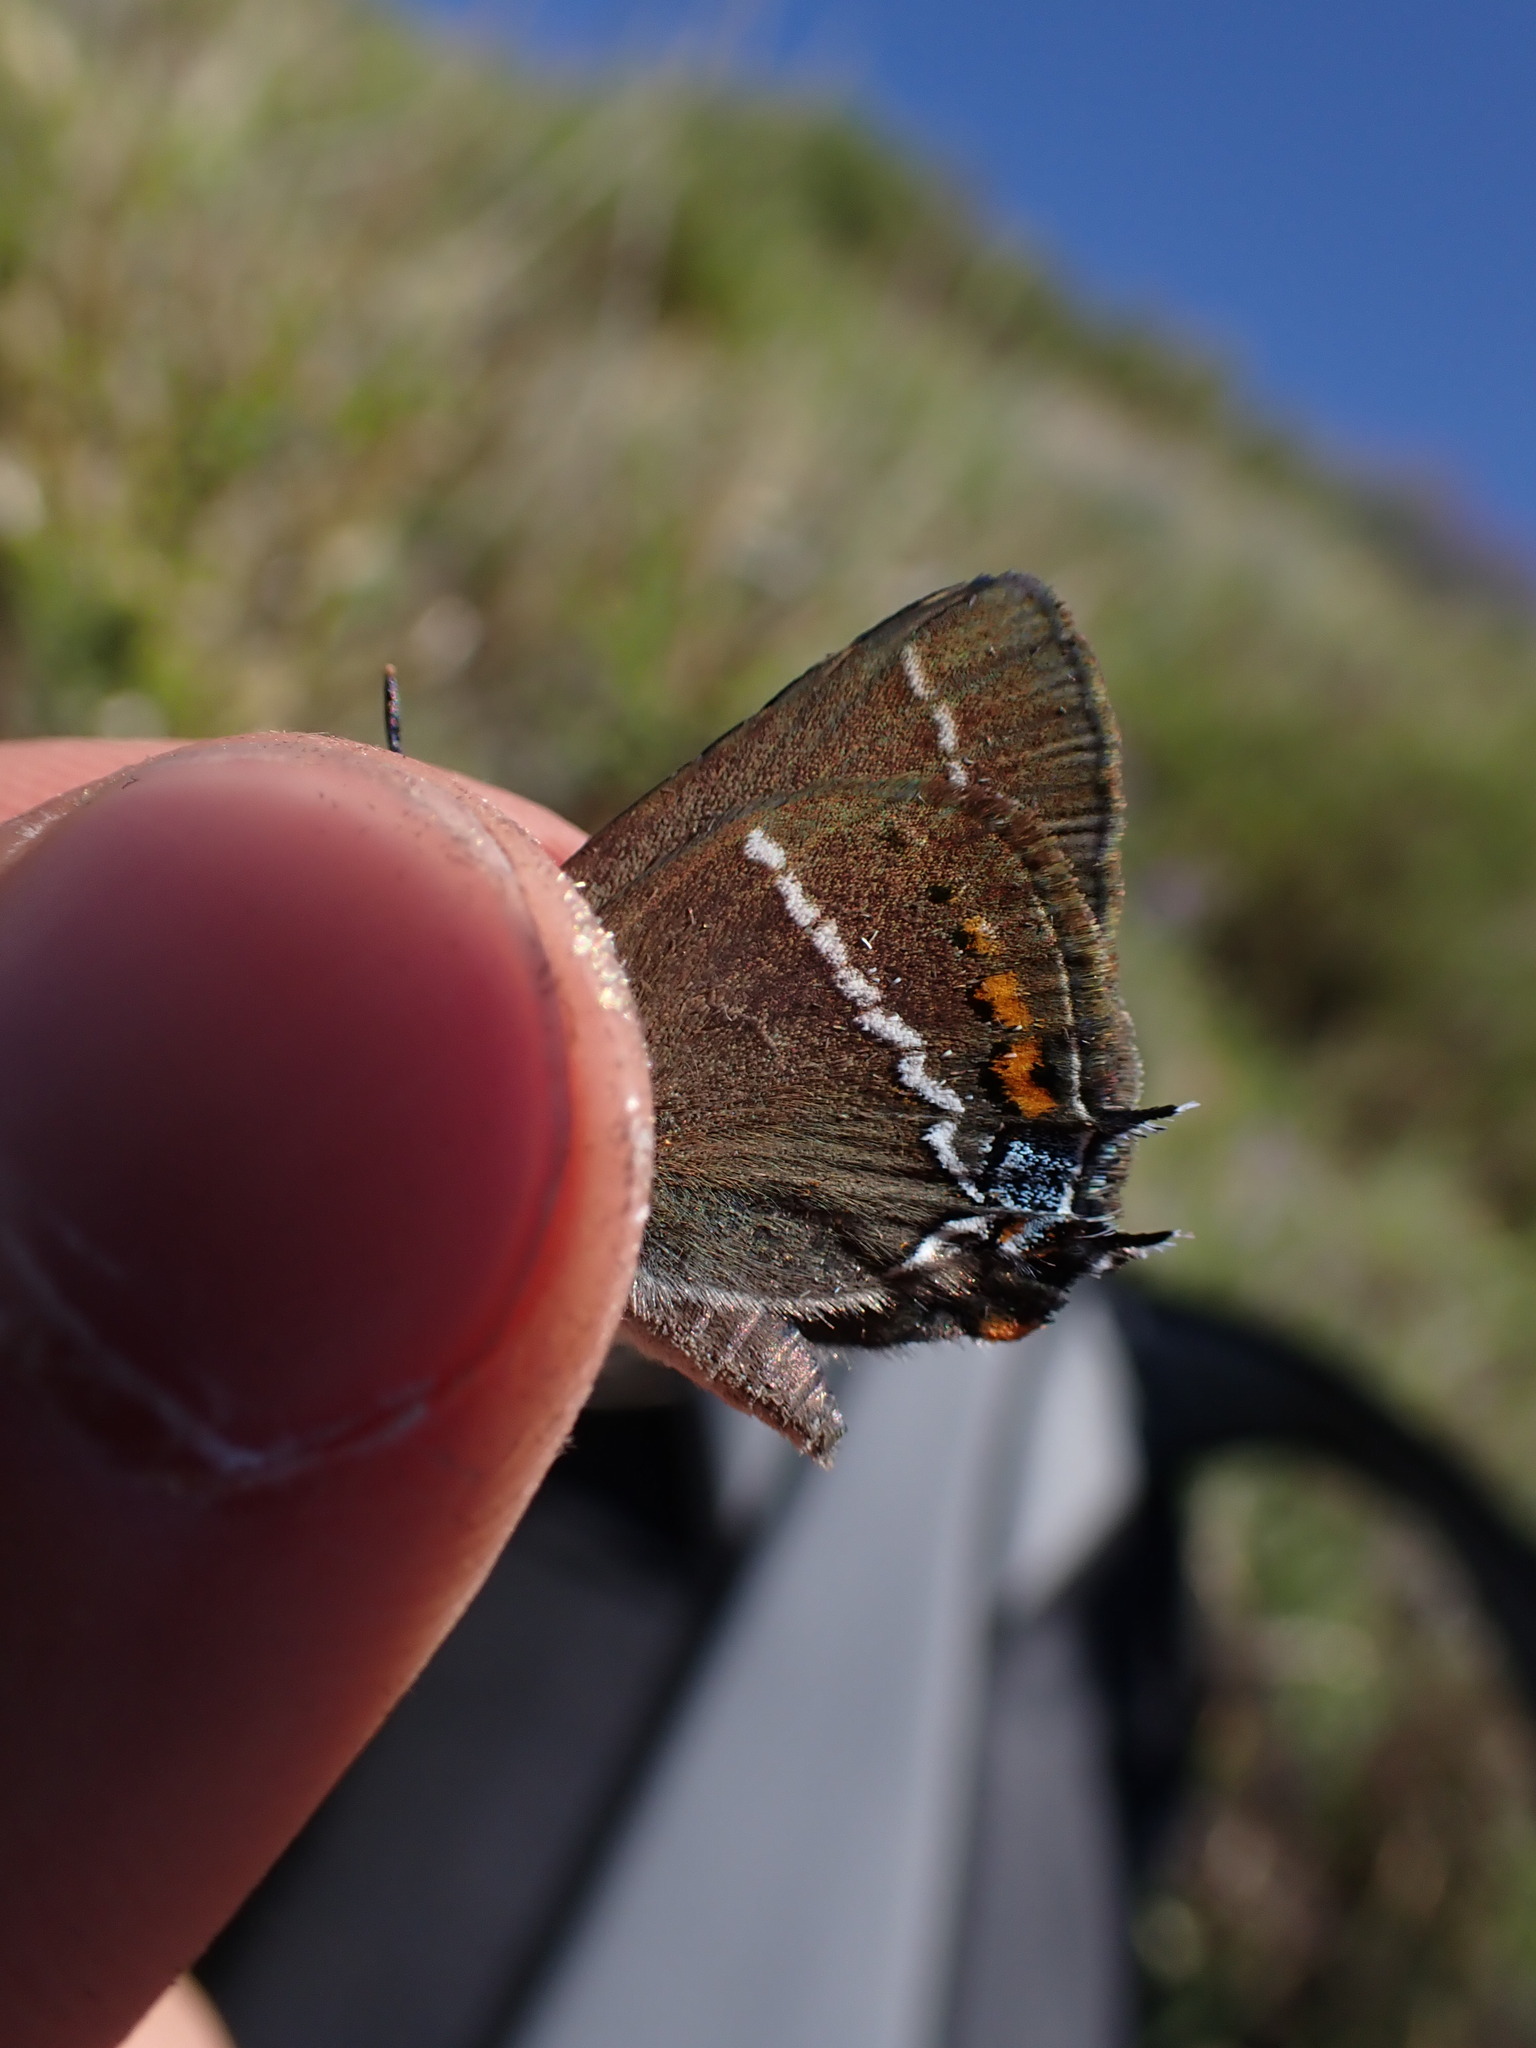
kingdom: Animalia
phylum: Arthropoda
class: Insecta
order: Lepidoptera
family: Lycaenidae
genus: Tuttiola
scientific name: Tuttiola spini
